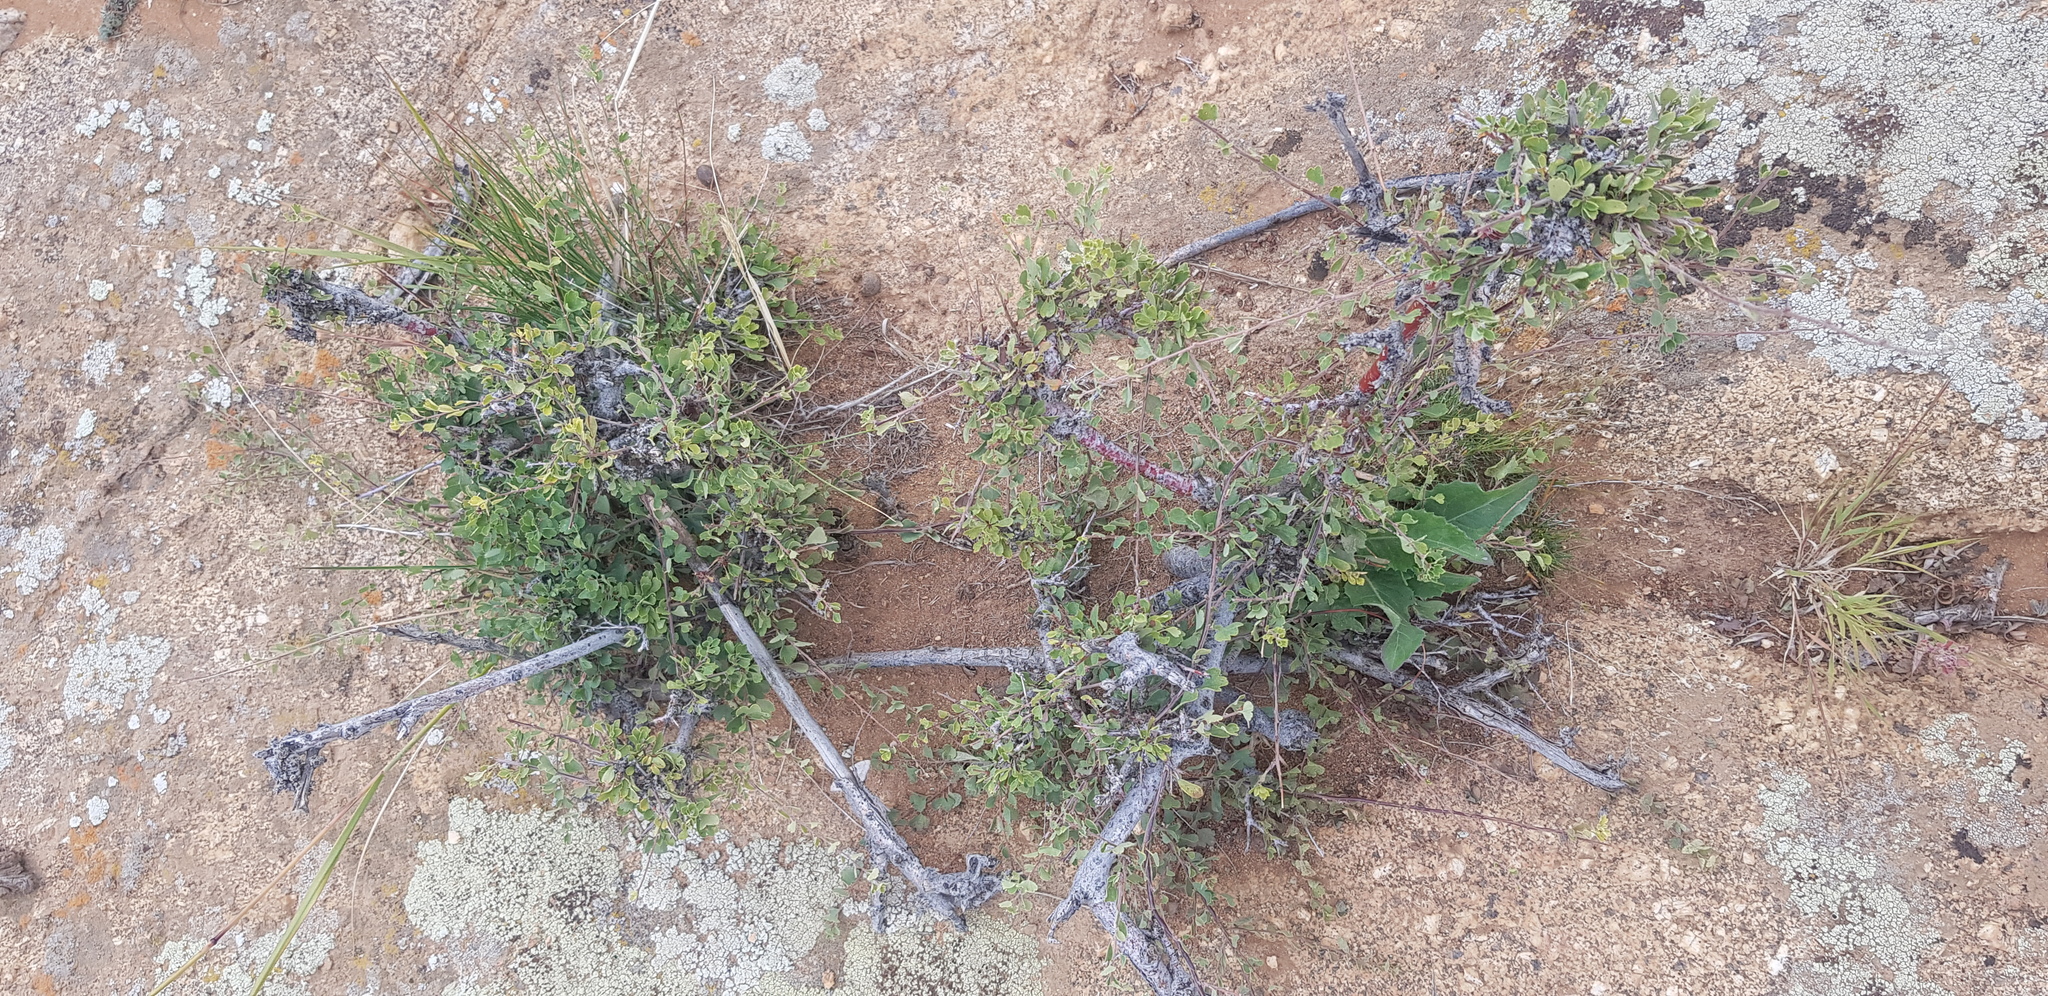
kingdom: Plantae
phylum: Tracheophyta
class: Magnoliopsida
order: Rosales
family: Rosaceae
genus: Spiraea
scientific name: Spiraea aquilegifolia
